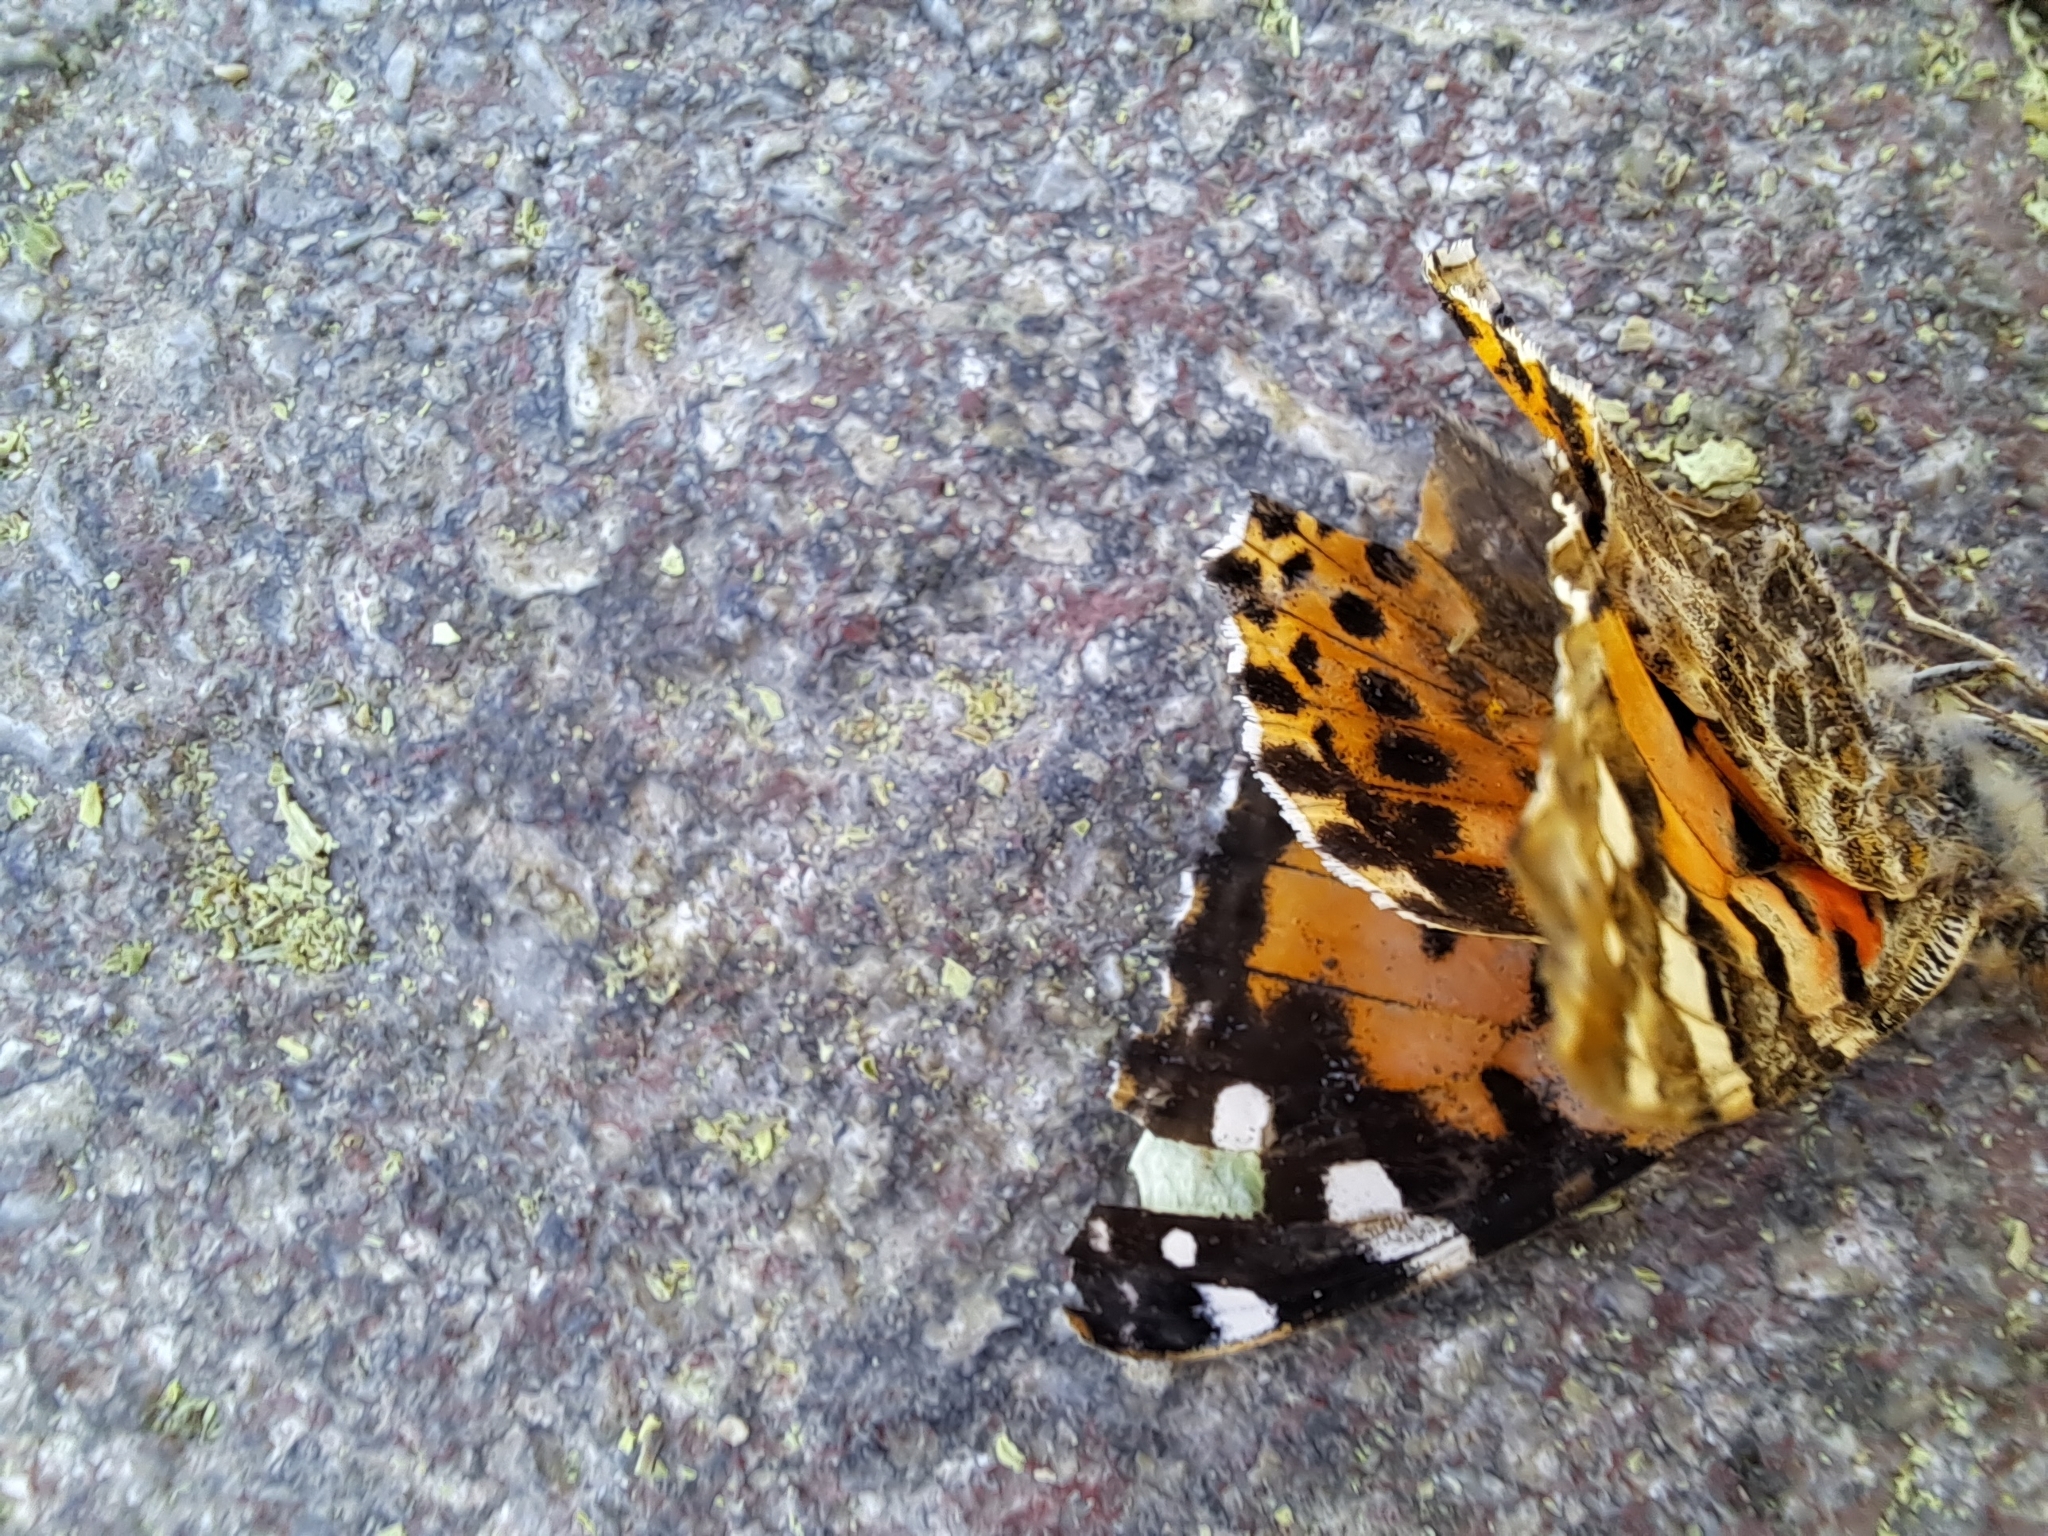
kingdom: Animalia
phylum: Arthropoda
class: Insecta
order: Lepidoptera
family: Nymphalidae
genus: Vanessa
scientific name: Vanessa cardui
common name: Painted lady
